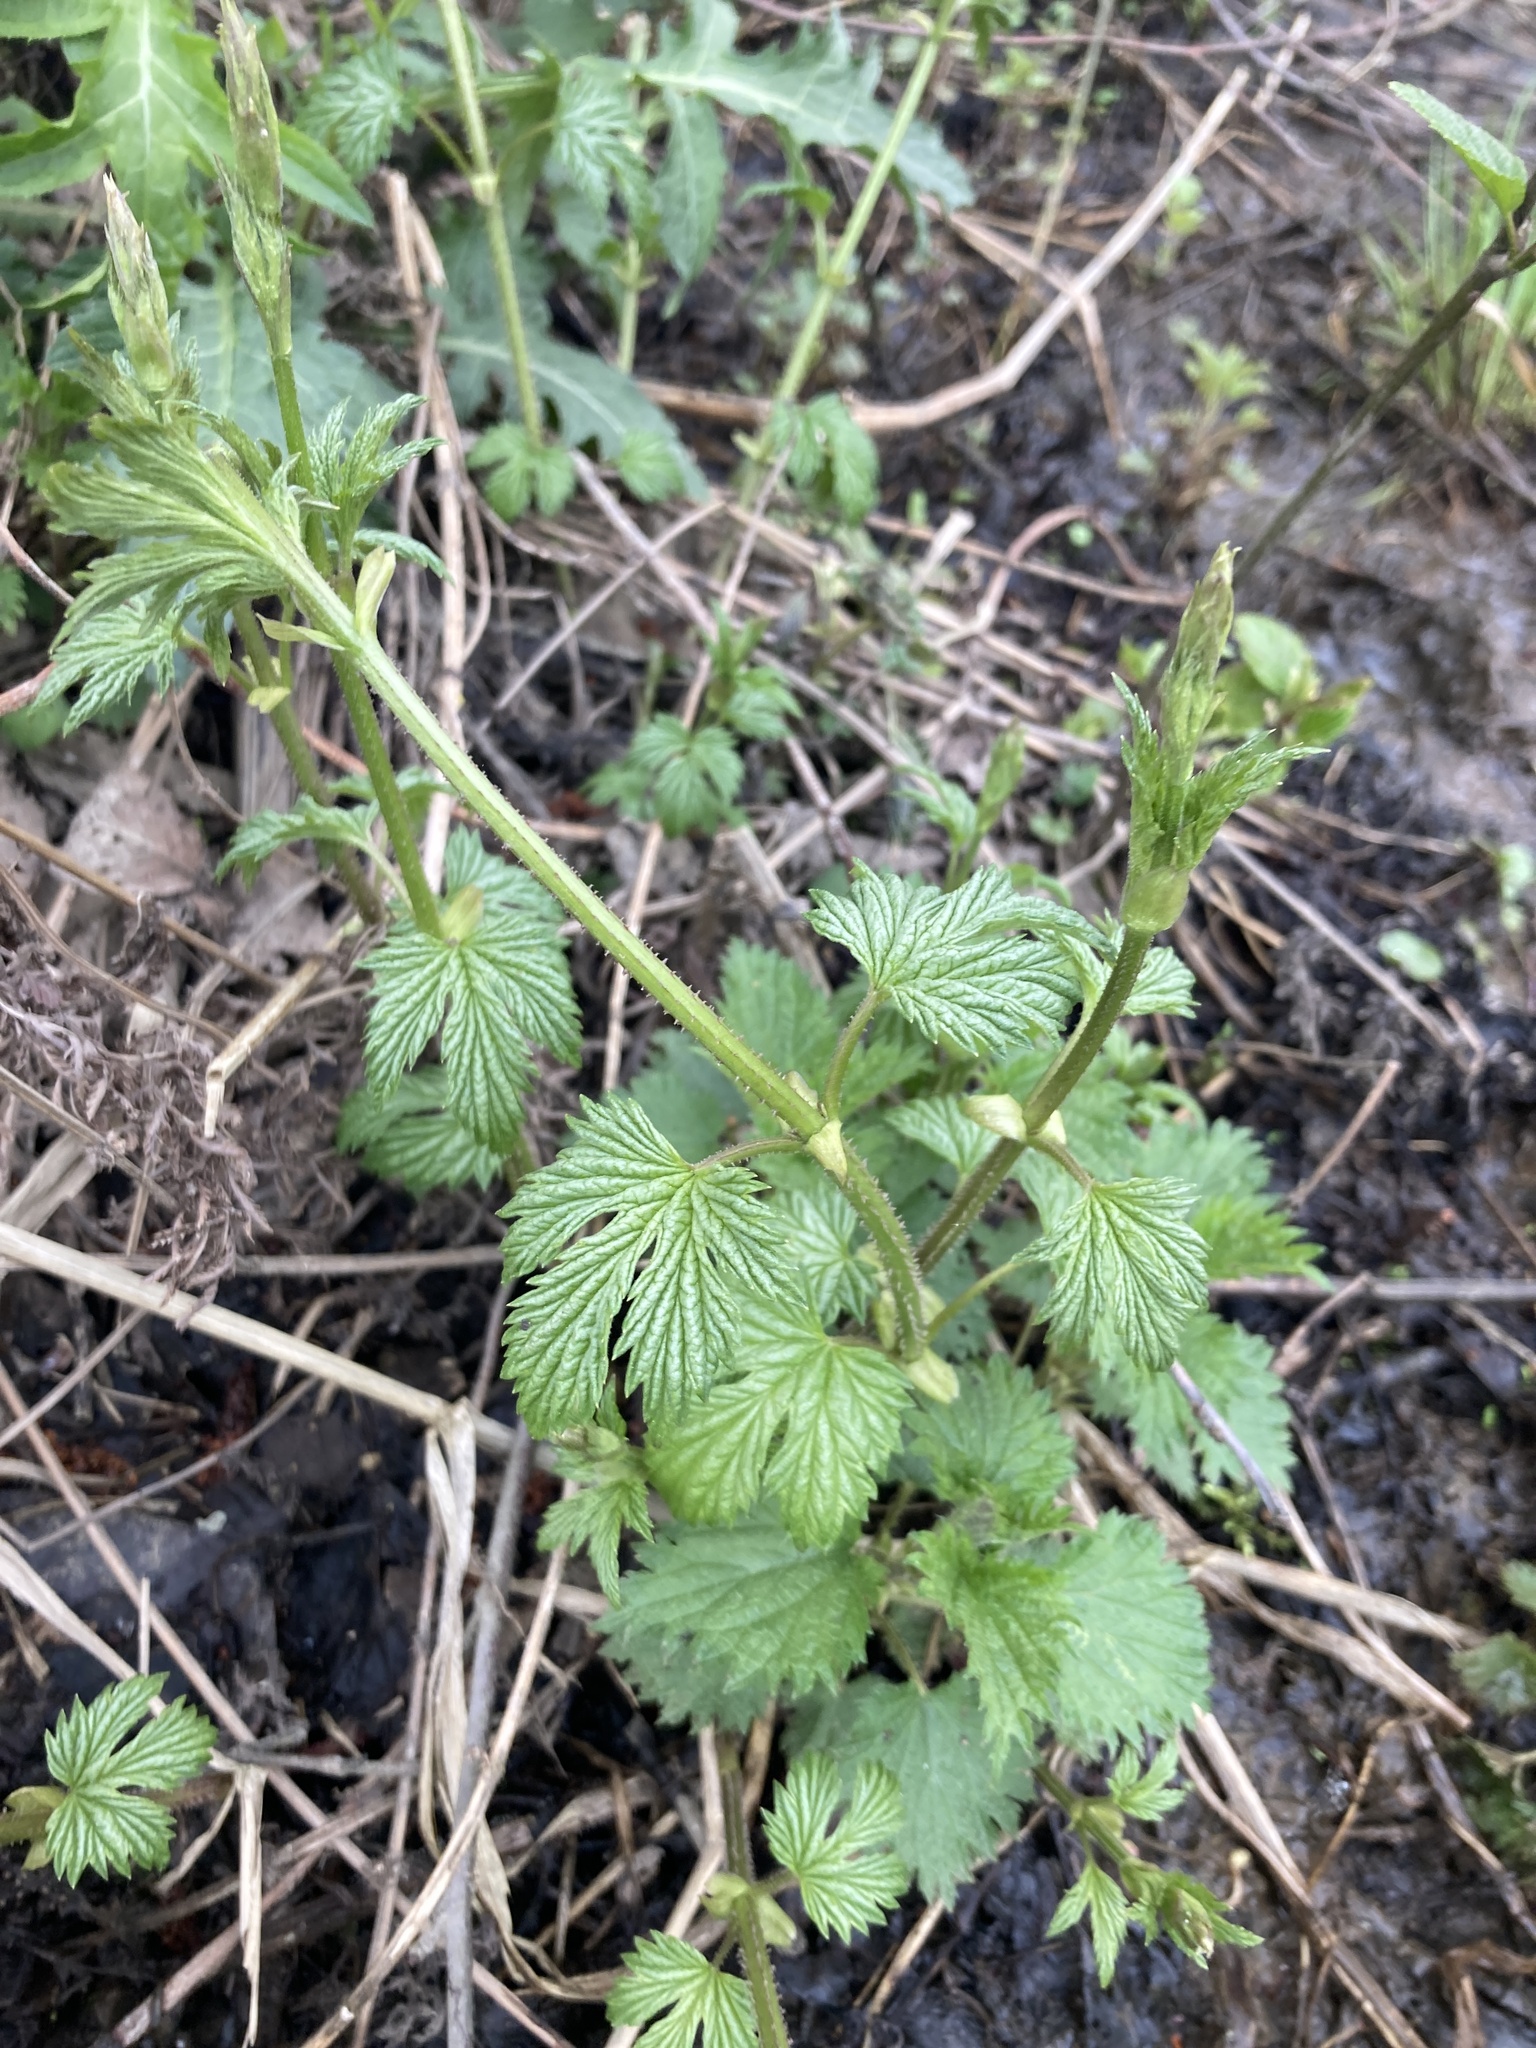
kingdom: Plantae
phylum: Tracheophyta
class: Magnoliopsida
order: Rosales
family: Cannabaceae
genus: Humulus
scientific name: Humulus lupulus
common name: Hop
